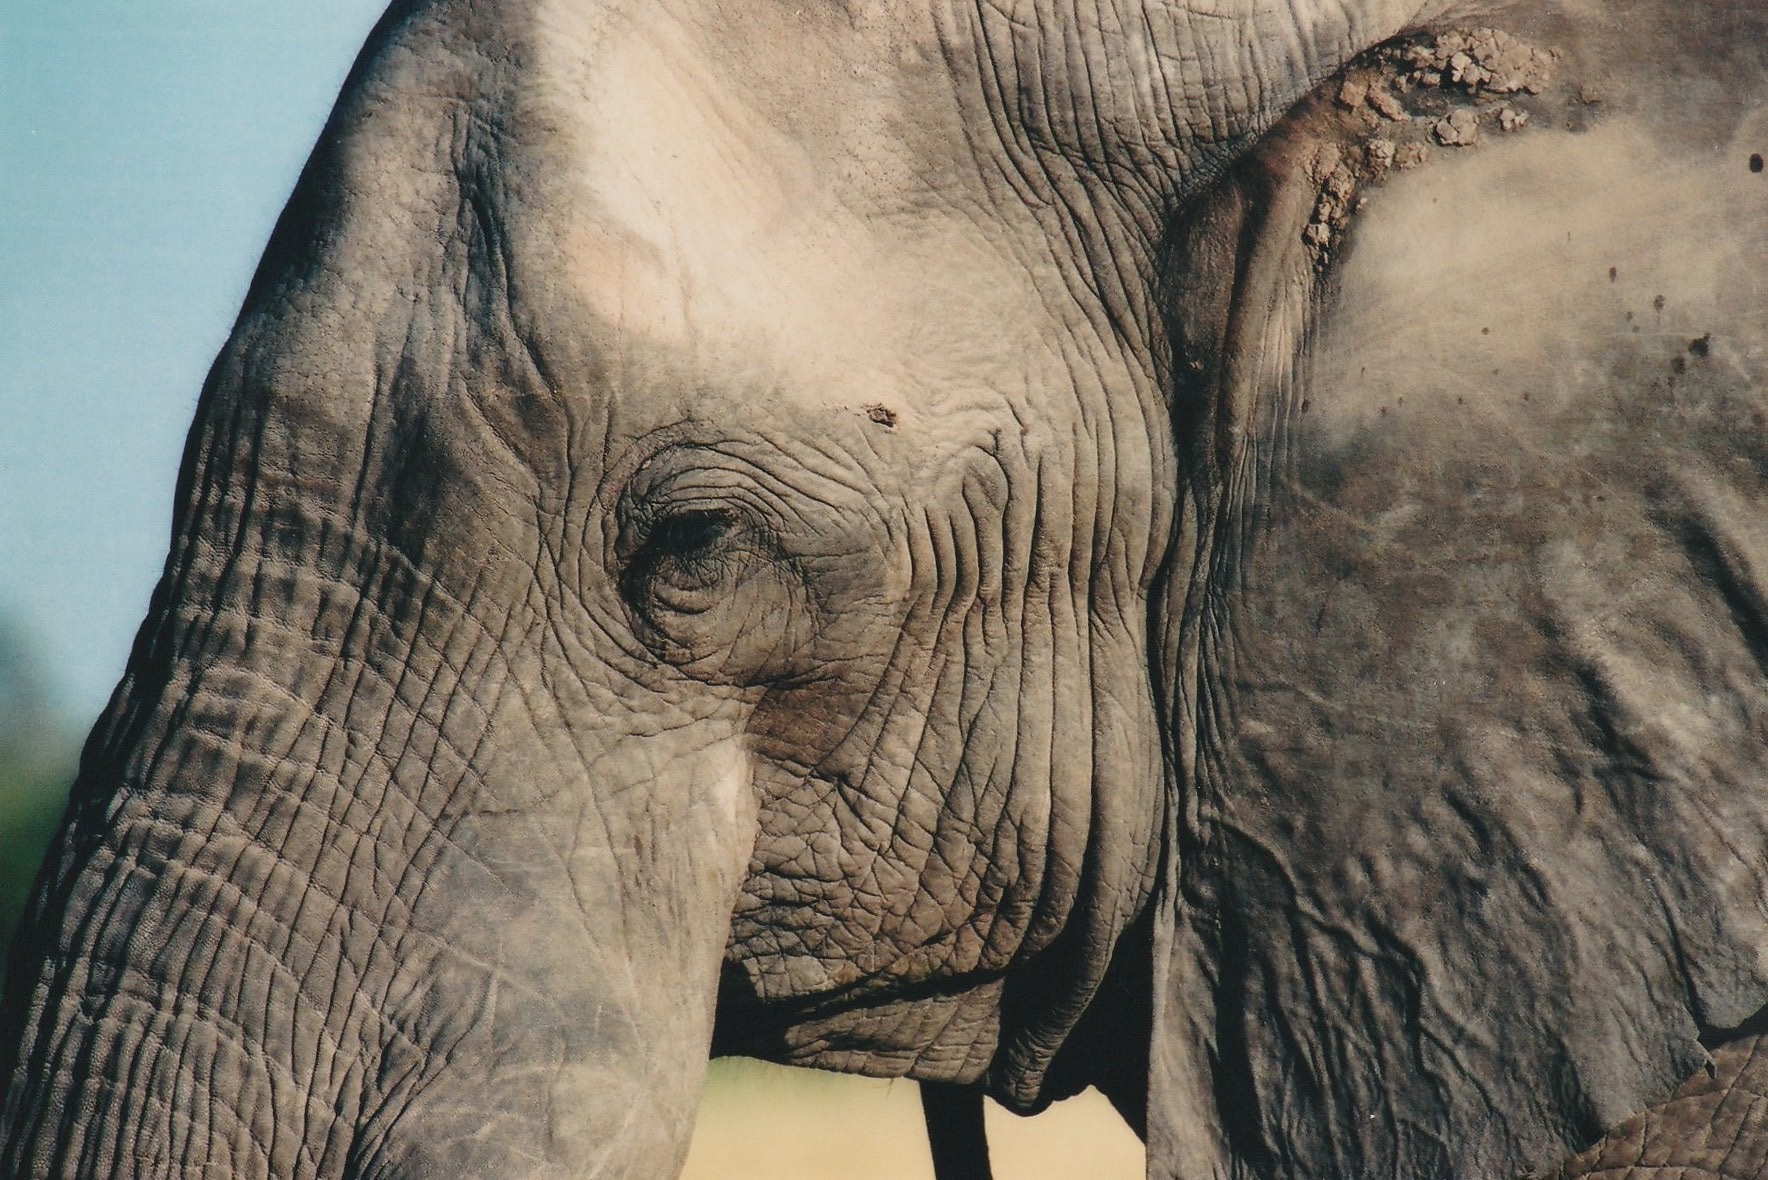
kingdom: Animalia
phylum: Chordata
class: Mammalia
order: Proboscidea
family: Elephantidae
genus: Loxodonta
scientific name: Loxodonta africana
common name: African elephant
